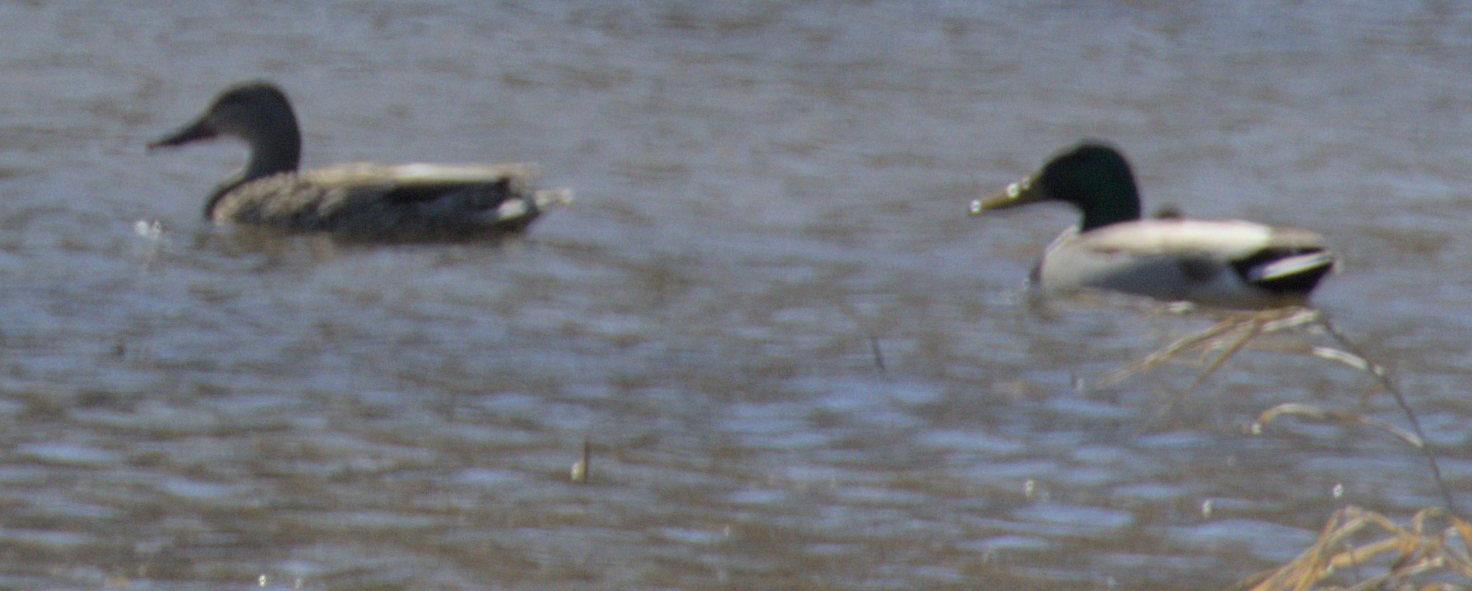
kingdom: Animalia
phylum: Chordata
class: Aves
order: Anseriformes
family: Anatidae
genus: Anas
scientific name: Anas platyrhynchos
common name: Mallard
